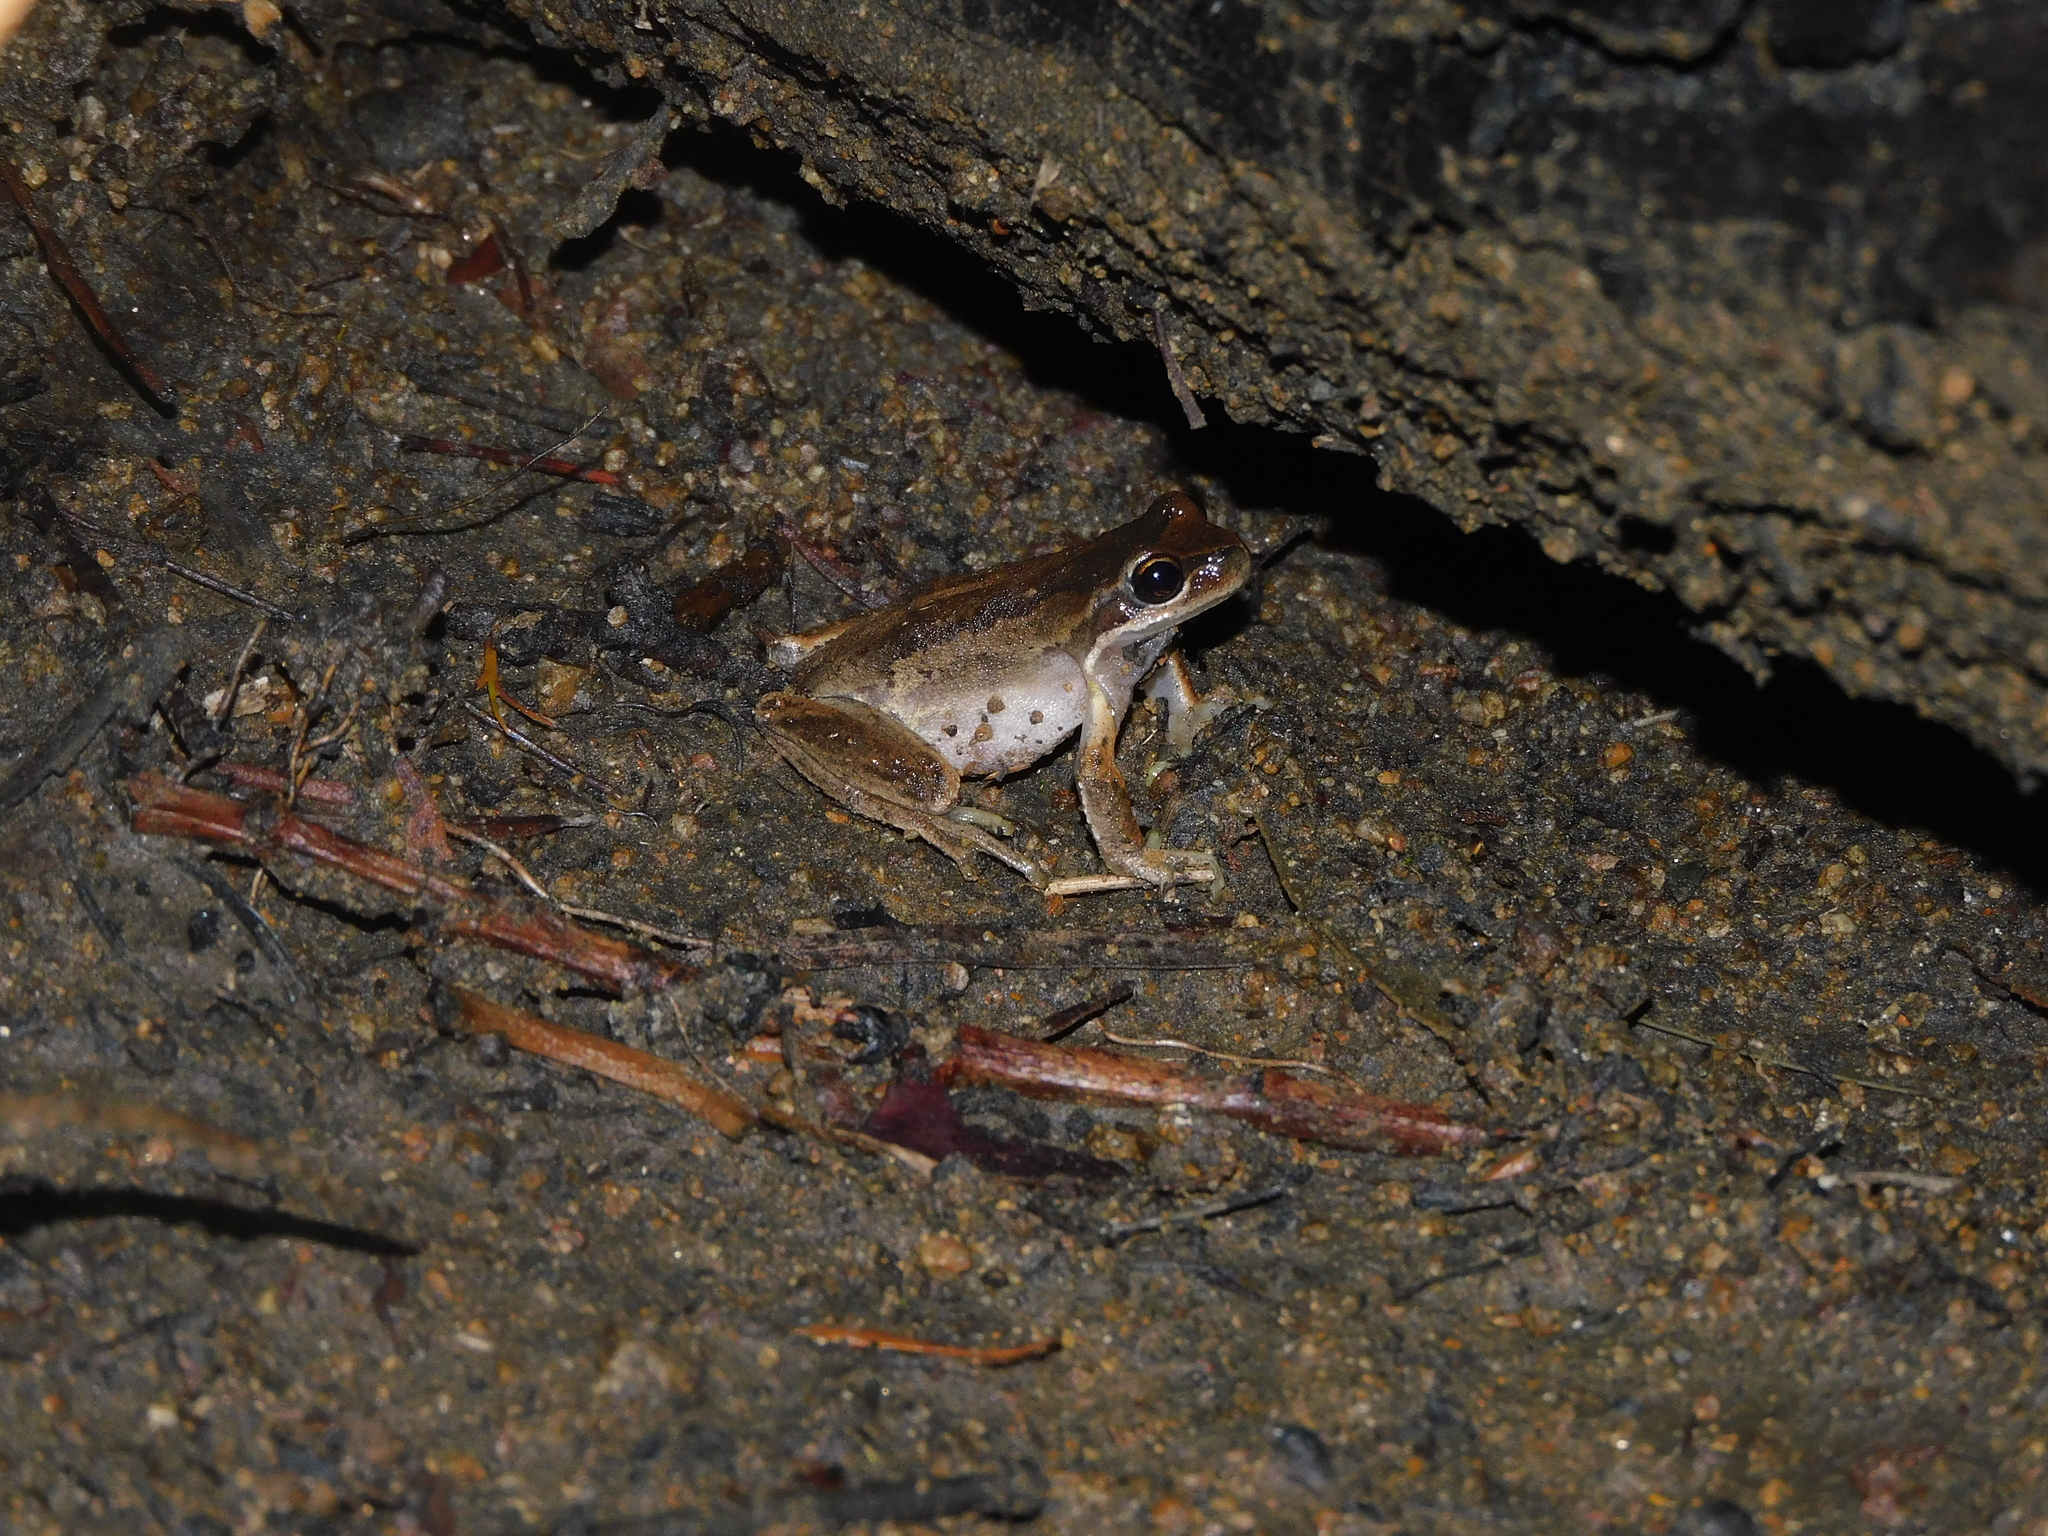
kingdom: Animalia
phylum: Chordata
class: Amphibia
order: Anura
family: Pelodryadidae
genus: Litoria
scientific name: Litoria ewingii
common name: Southern brown tree frog
